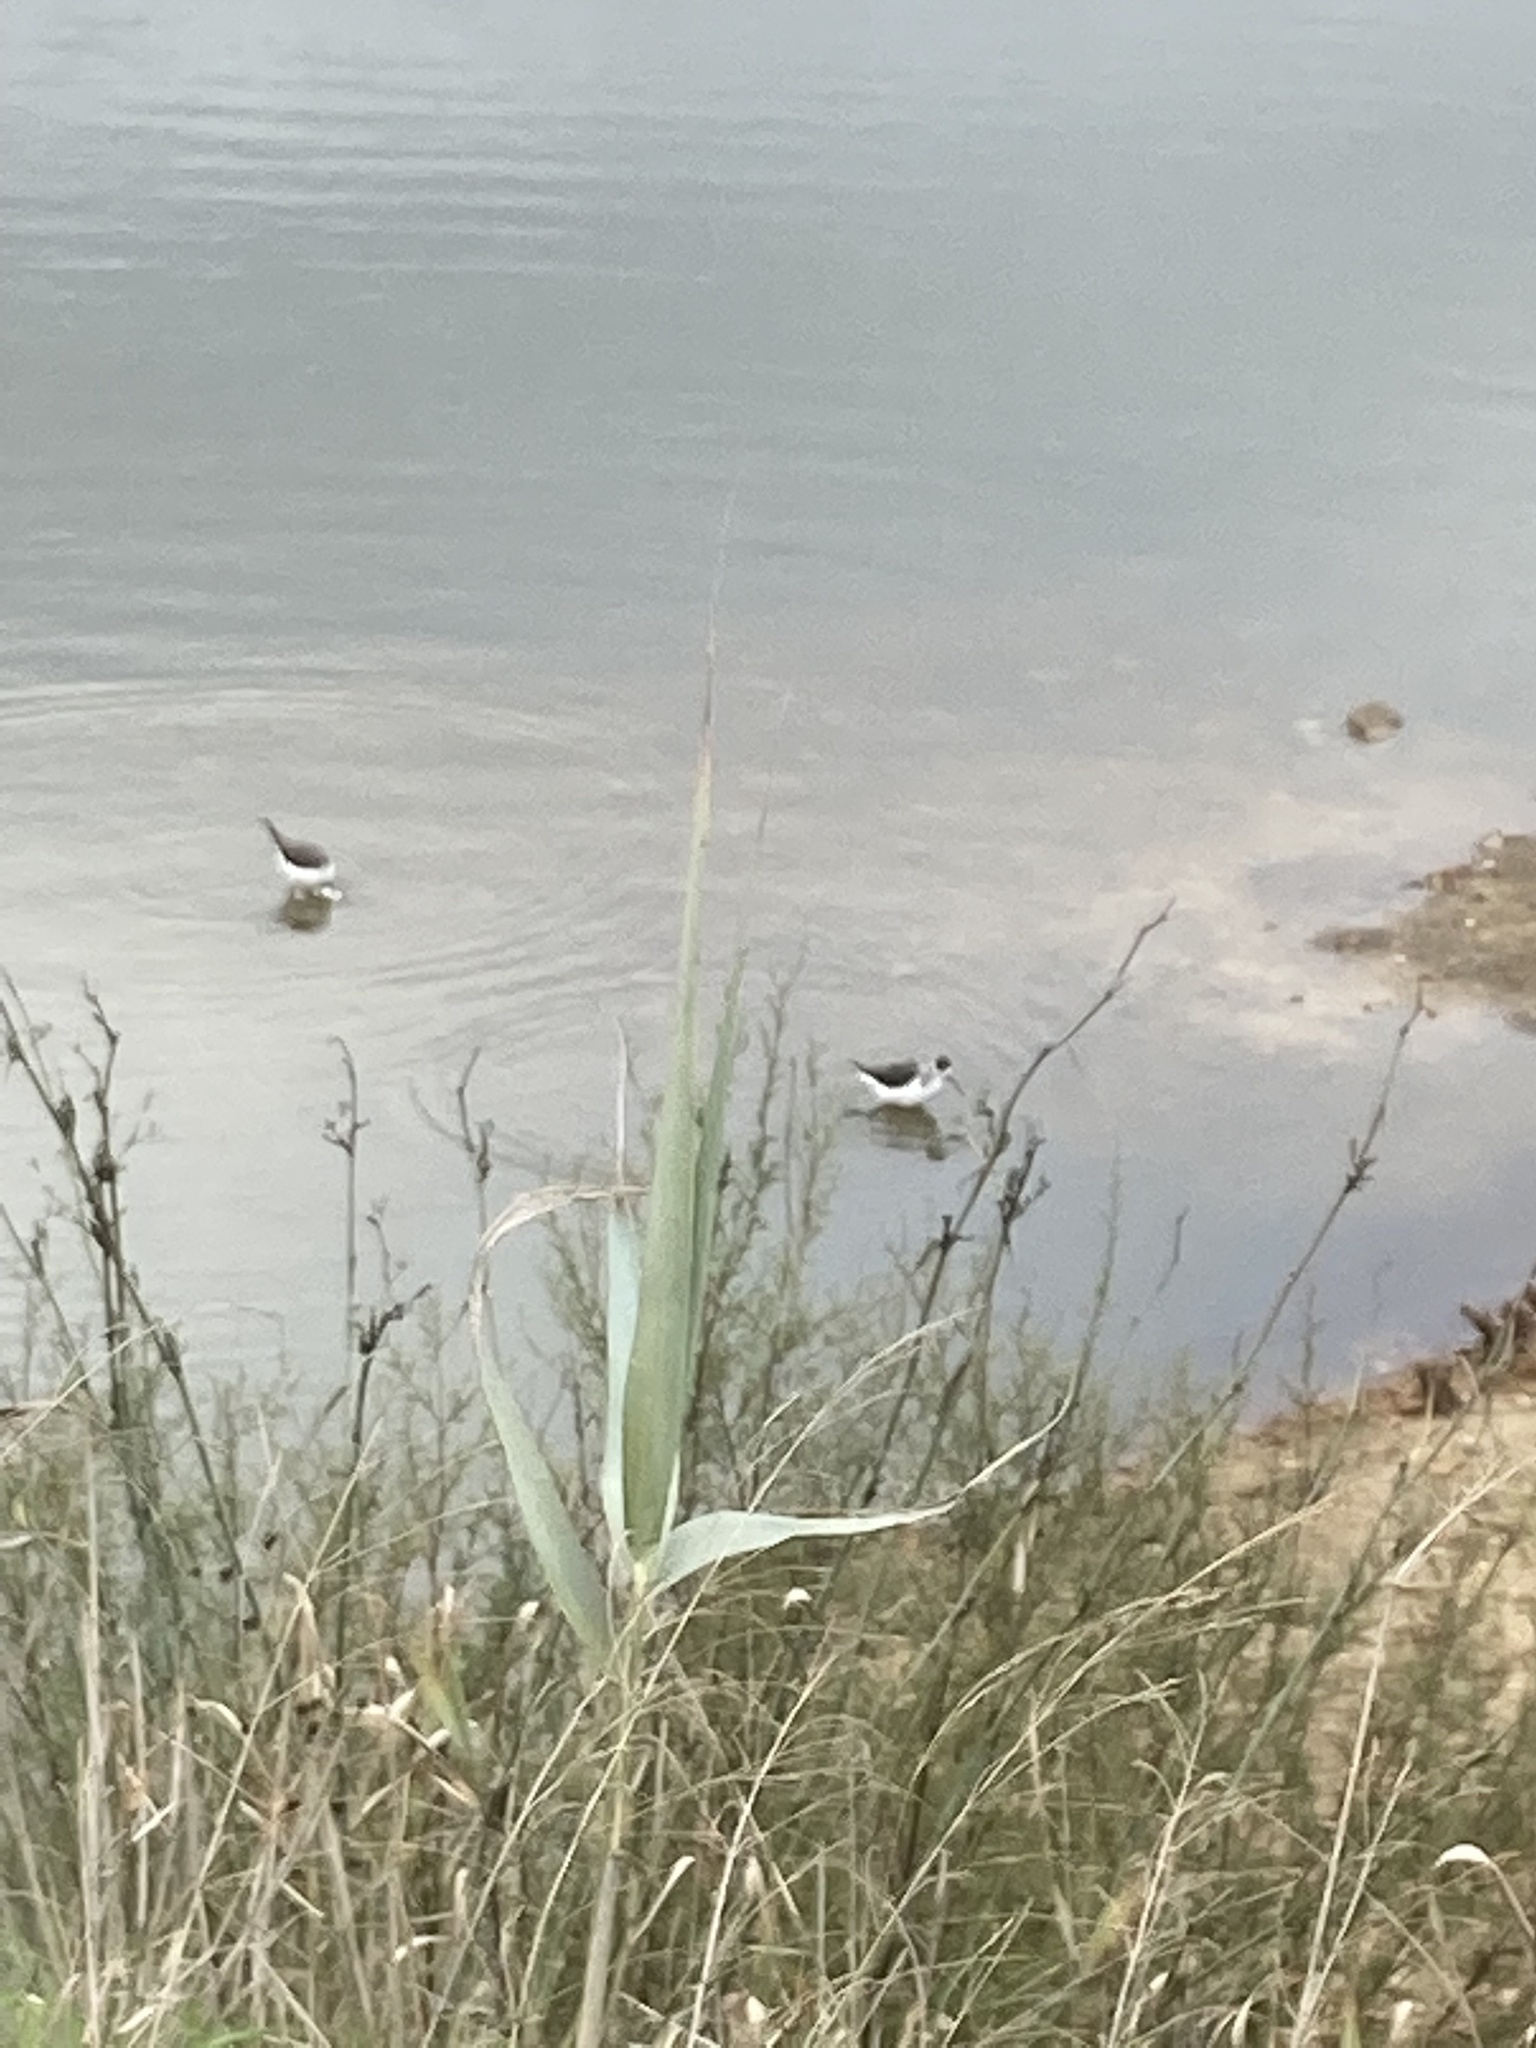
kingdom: Animalia
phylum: Chordata
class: Aves
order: Charadriiformes
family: Recurvirostridae
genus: Himantopus
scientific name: Himantopus himantopus
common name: Black-winged stilt
